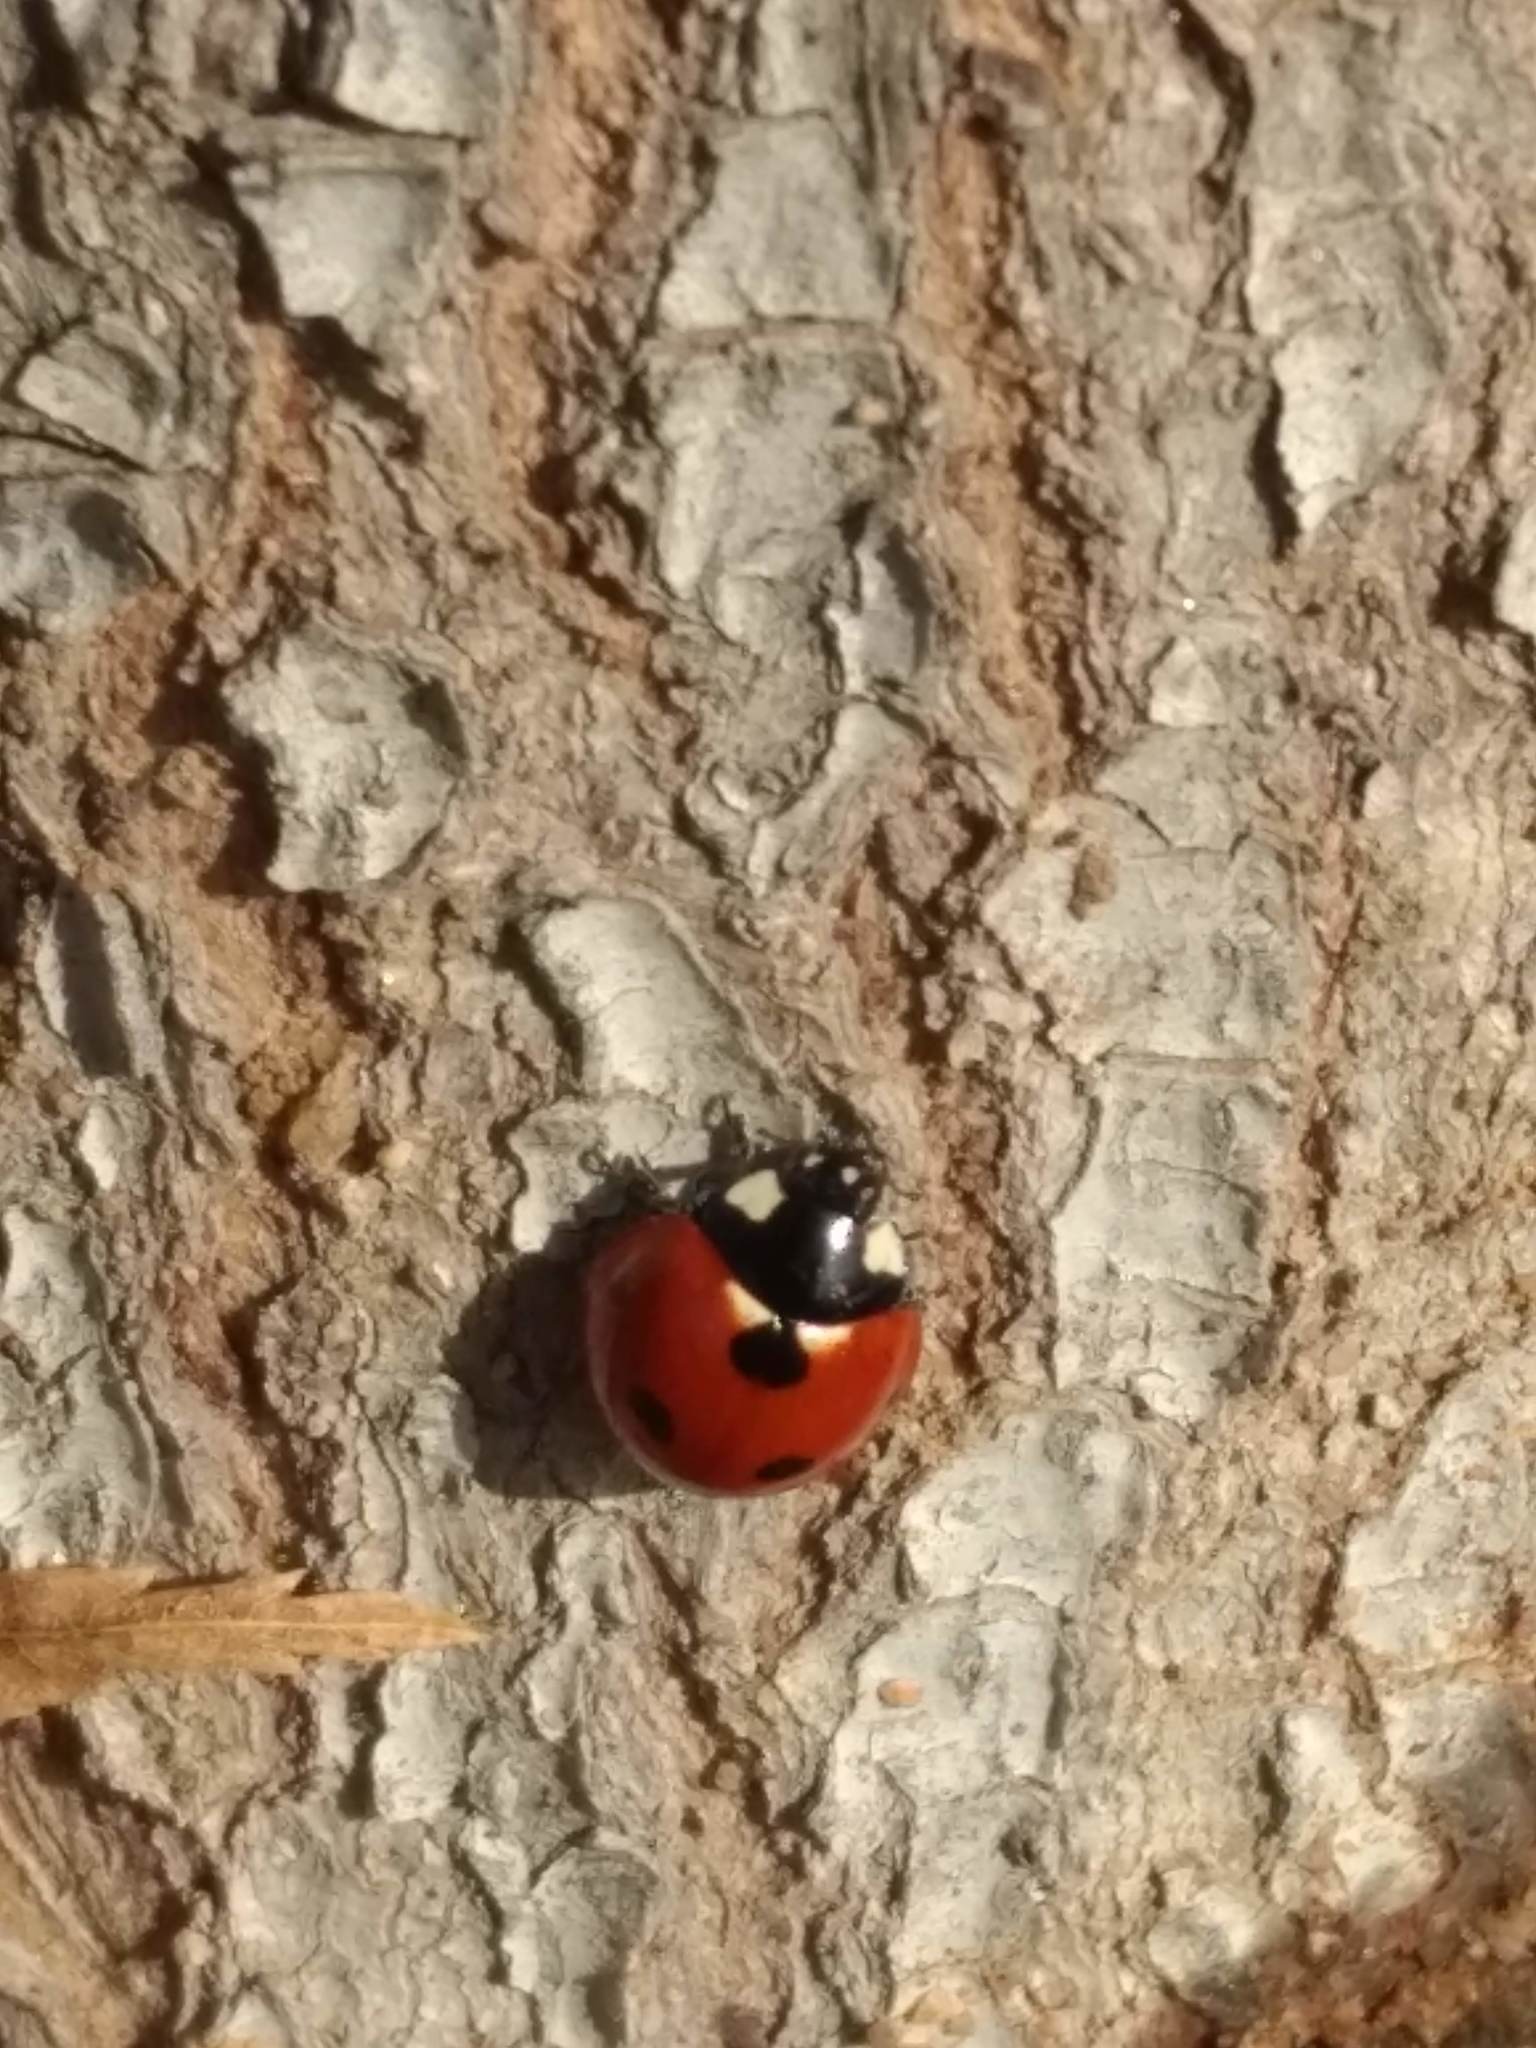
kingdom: Animalia
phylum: Arthropoda
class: Insecta
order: Coleoptera
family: Coccinellidae
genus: Coccinella
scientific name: Coccinella septempunctata
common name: Sevenspotted lady beetle
